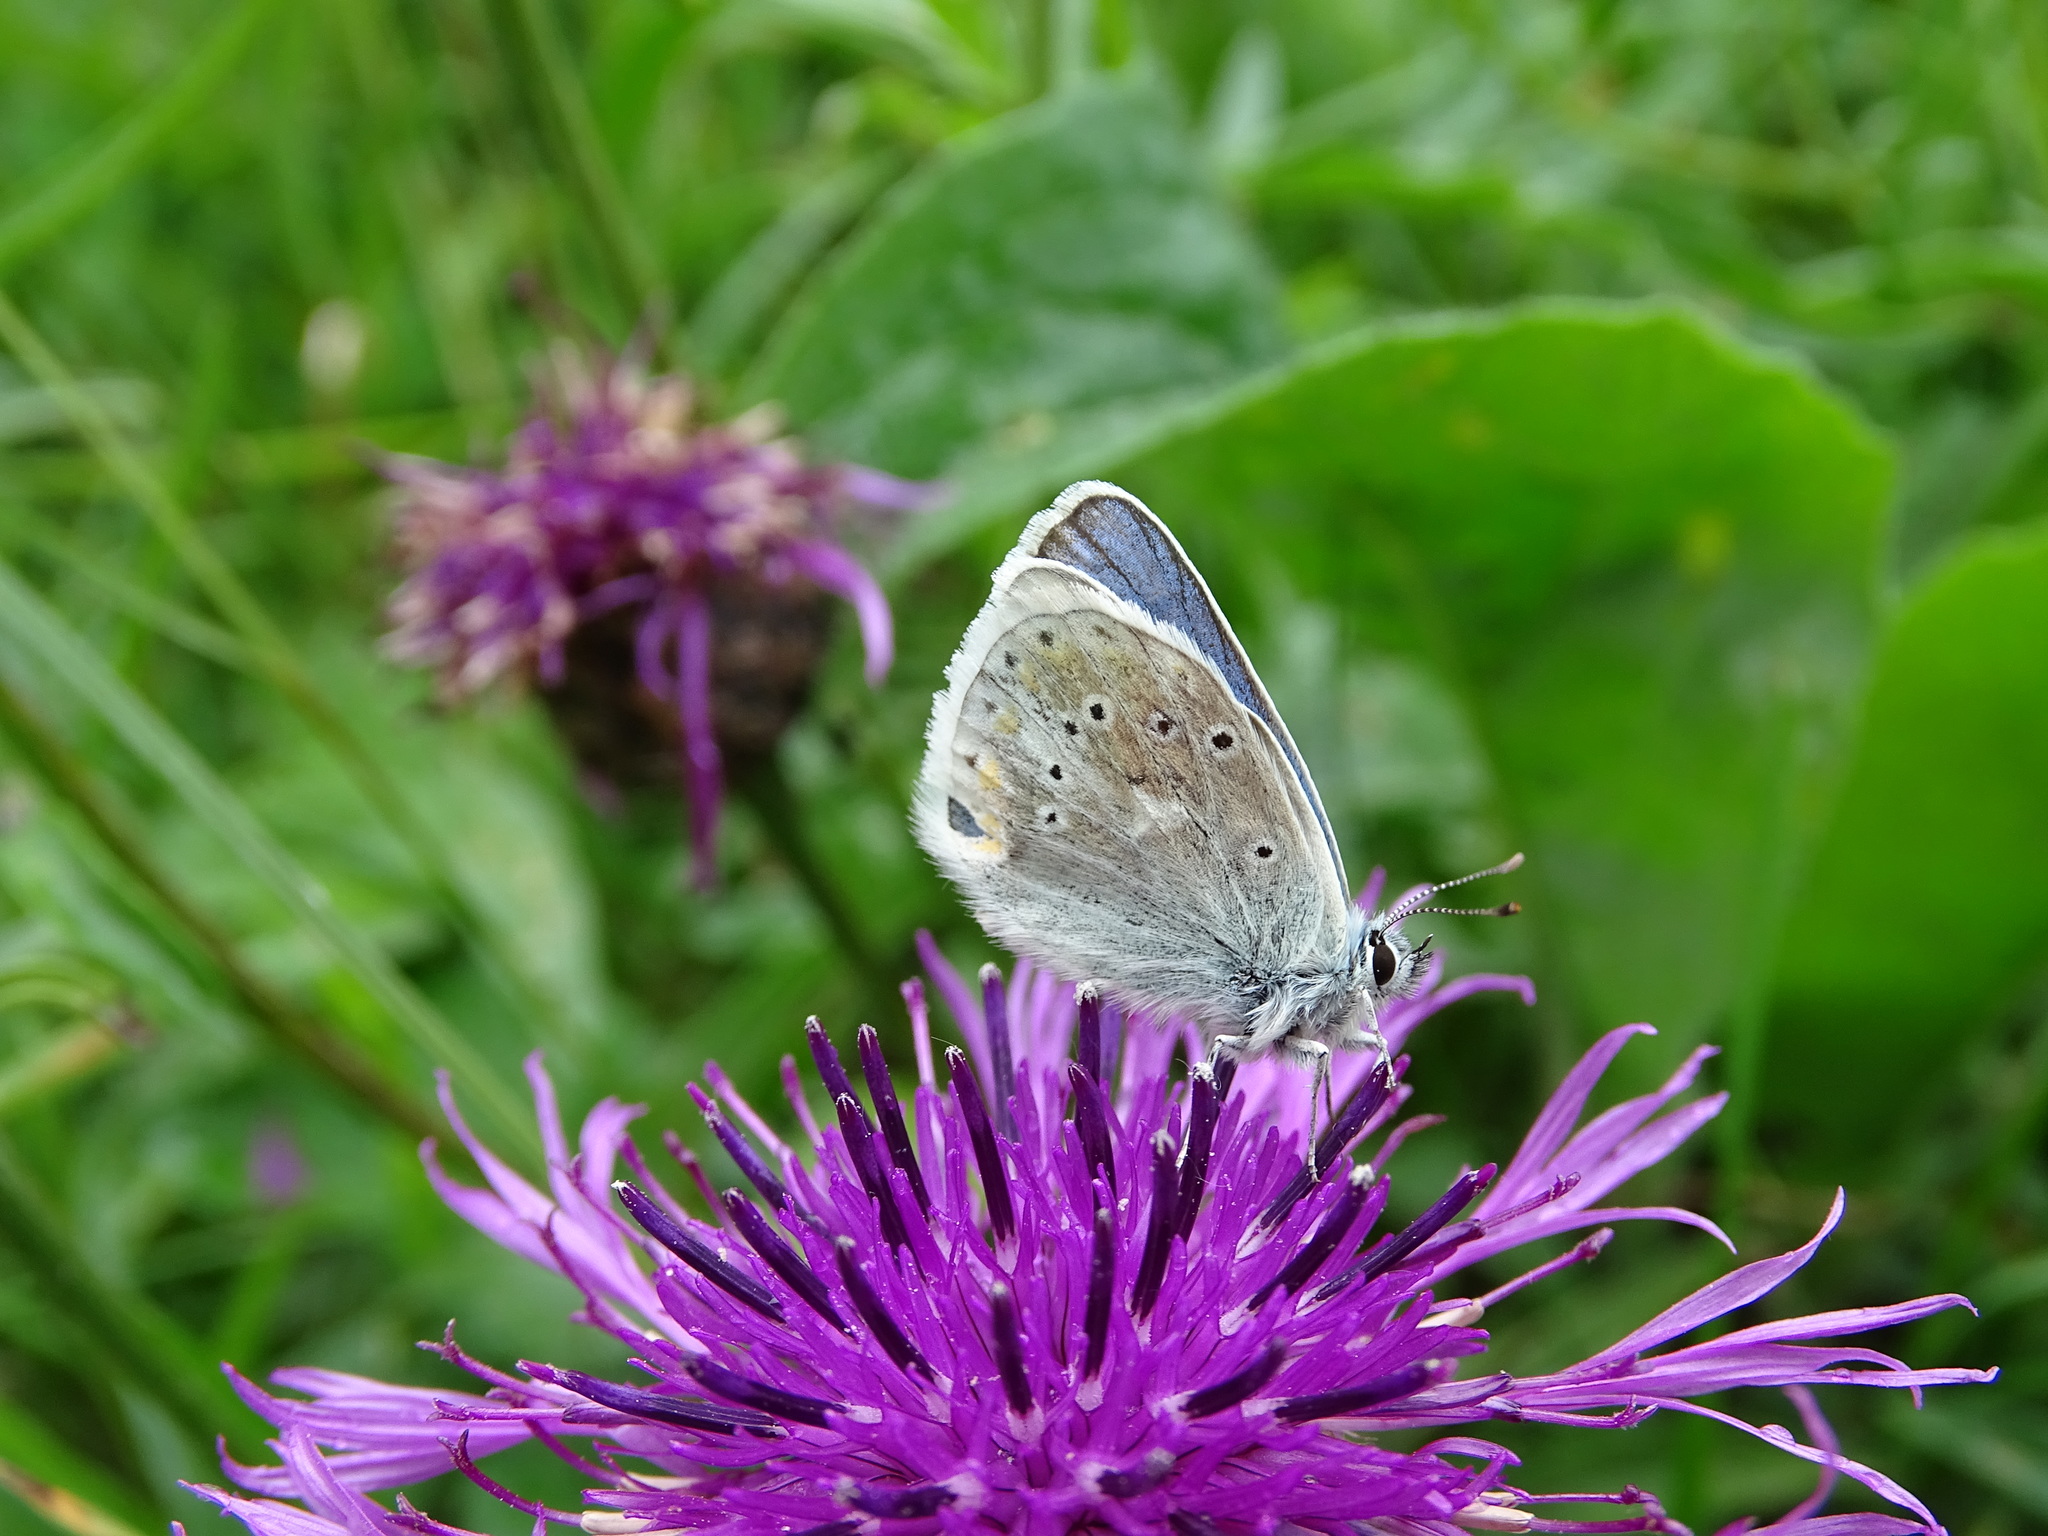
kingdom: Animalia
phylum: Arthropoda
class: Insecta
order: Lepidoptera
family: Lycaenidae
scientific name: Lycaenidae
